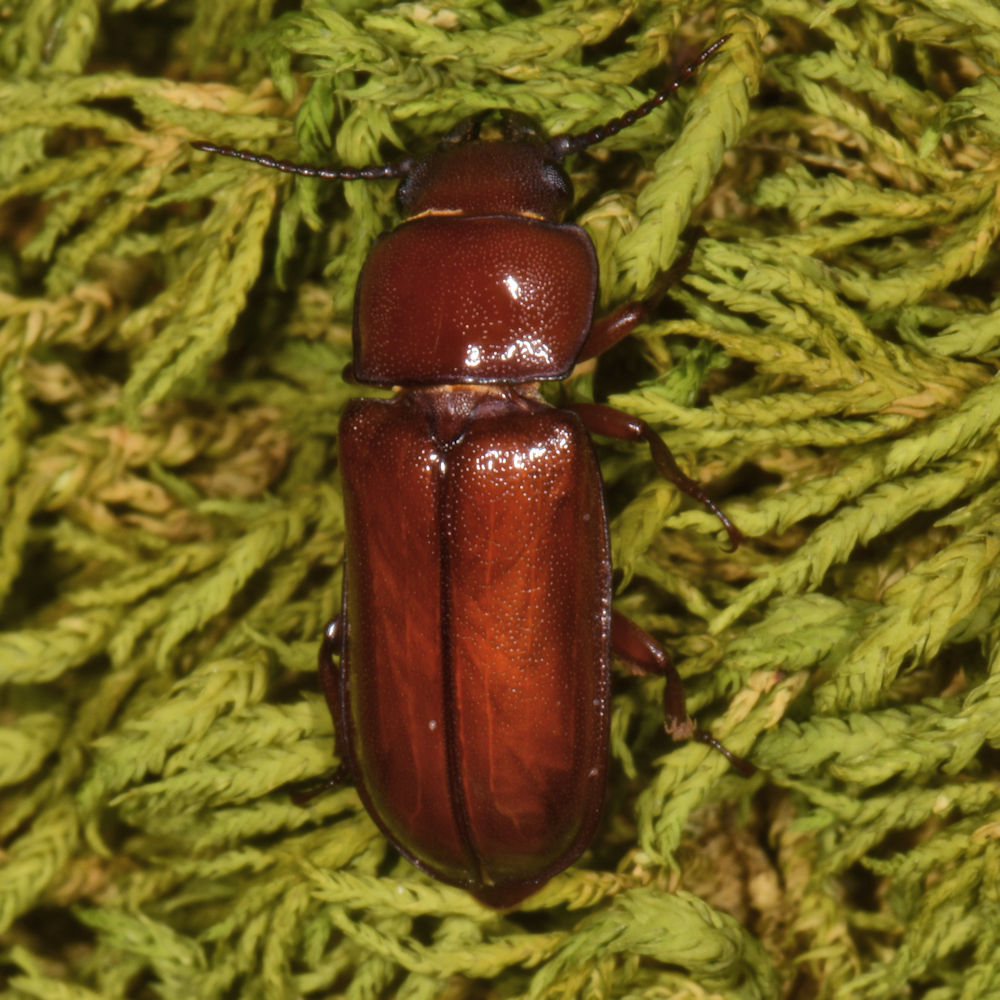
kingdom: Animalia
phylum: Arthropoda
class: Insecta
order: Coleoptera
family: Cerambycidae
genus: Neandra
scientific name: Neandra brunnea
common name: Pole borer
